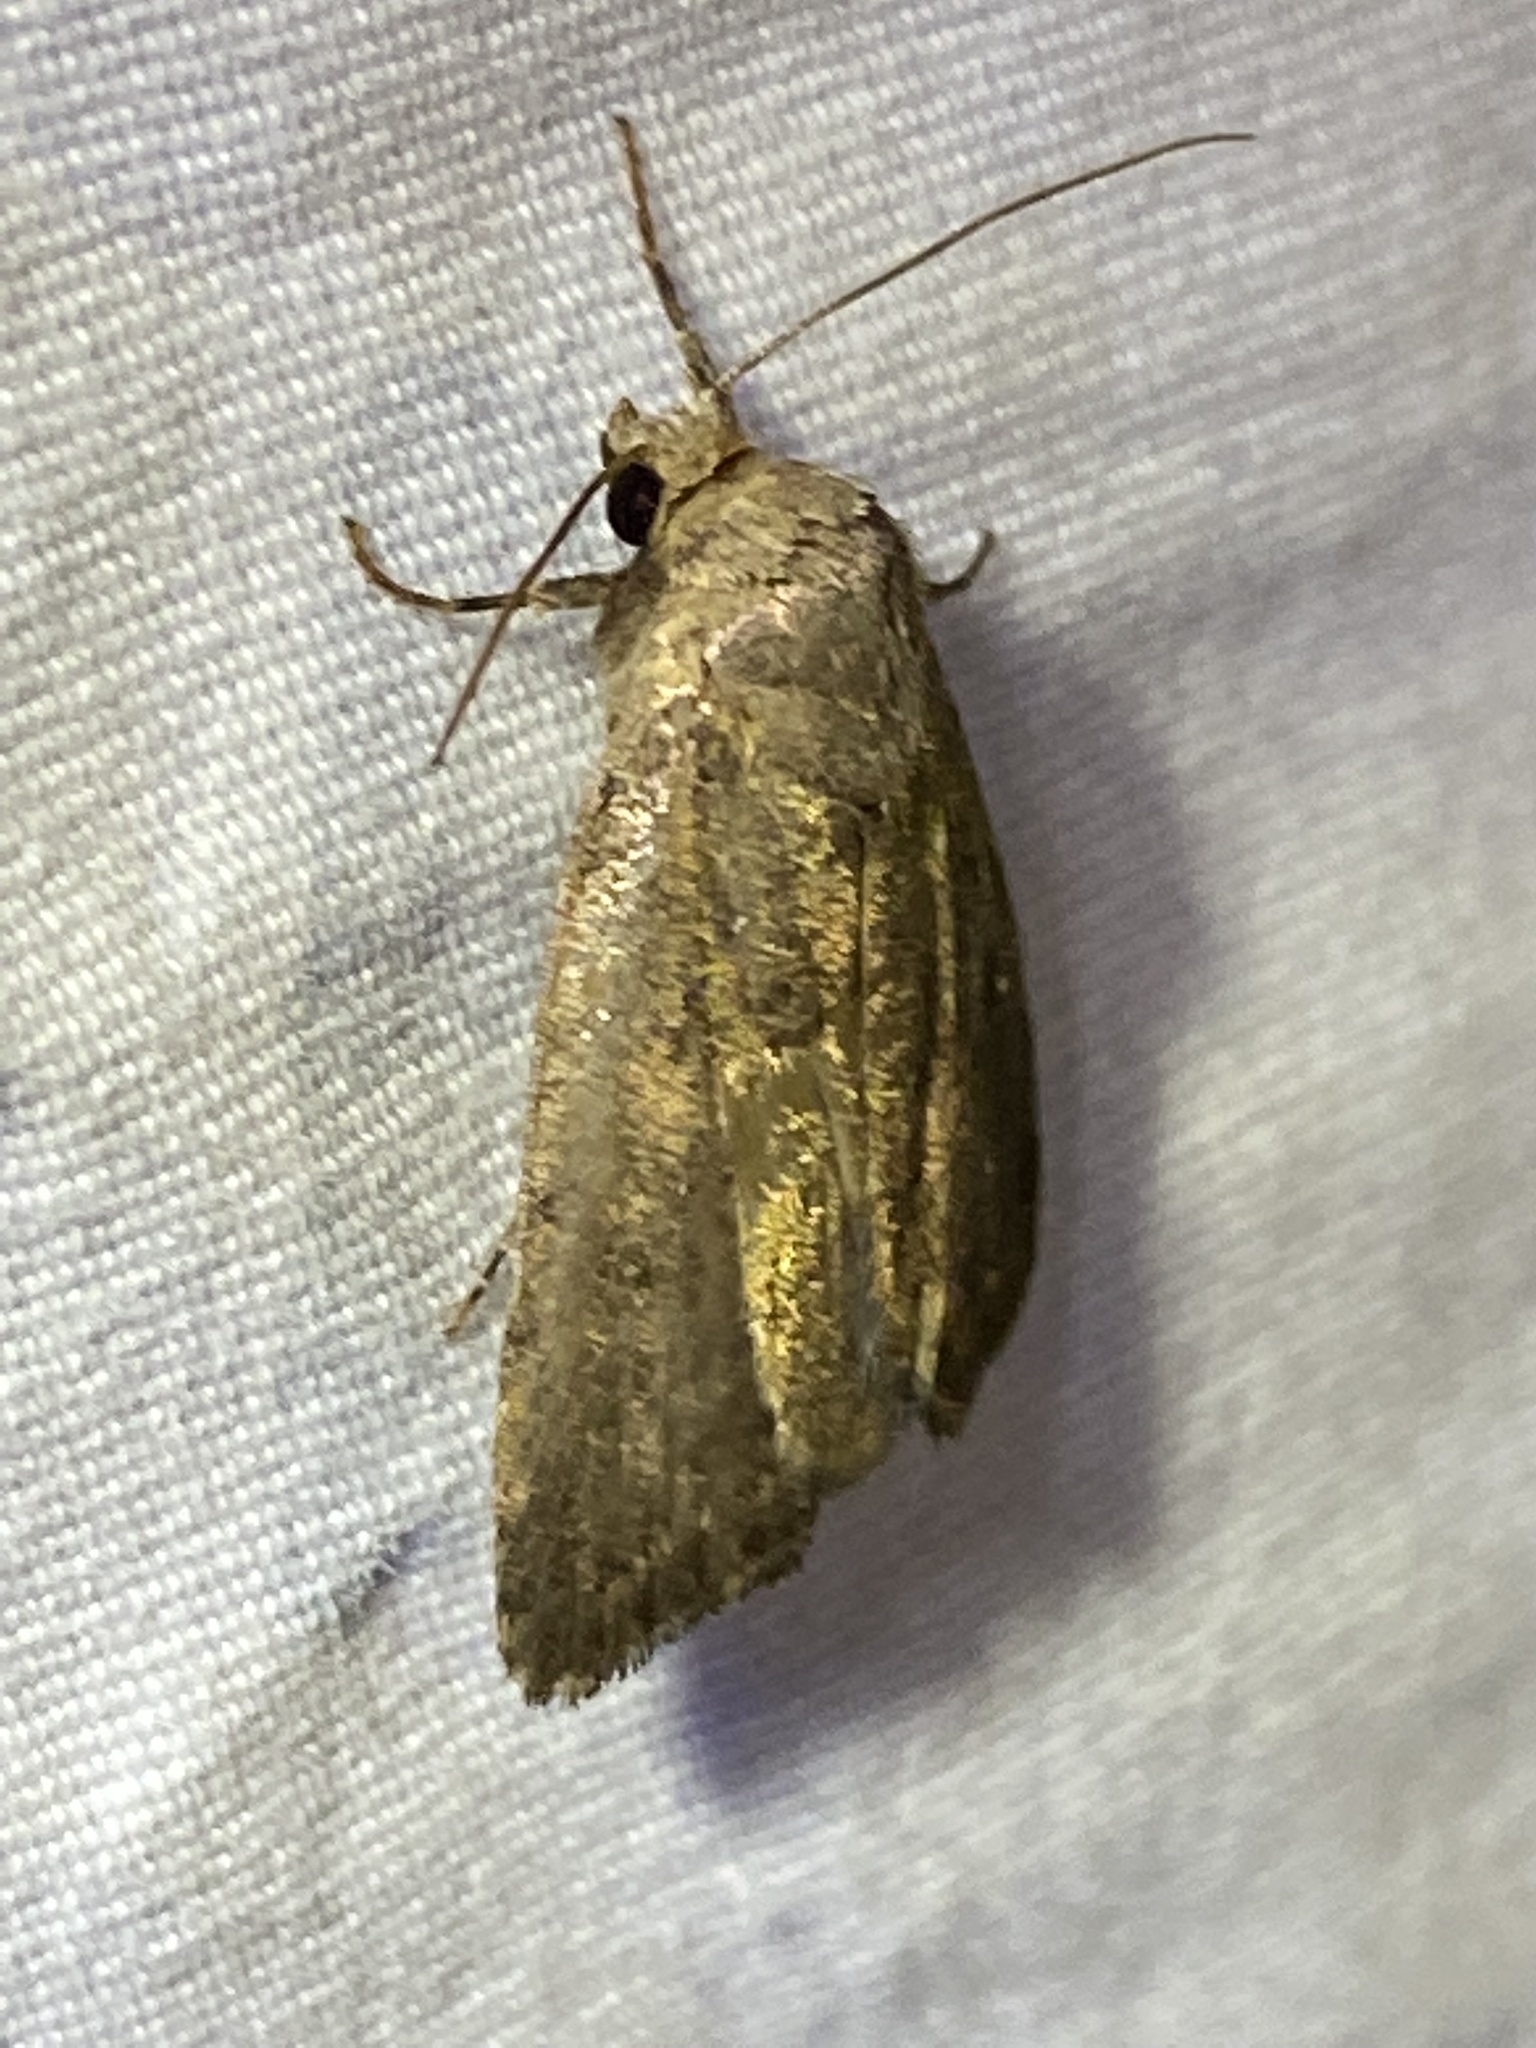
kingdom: Animalia
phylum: Arthropoda
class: Insecta
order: Lepidoptera
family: Noctuidae
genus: Athetis
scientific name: Athetis tarda
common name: Slowpoke moth
